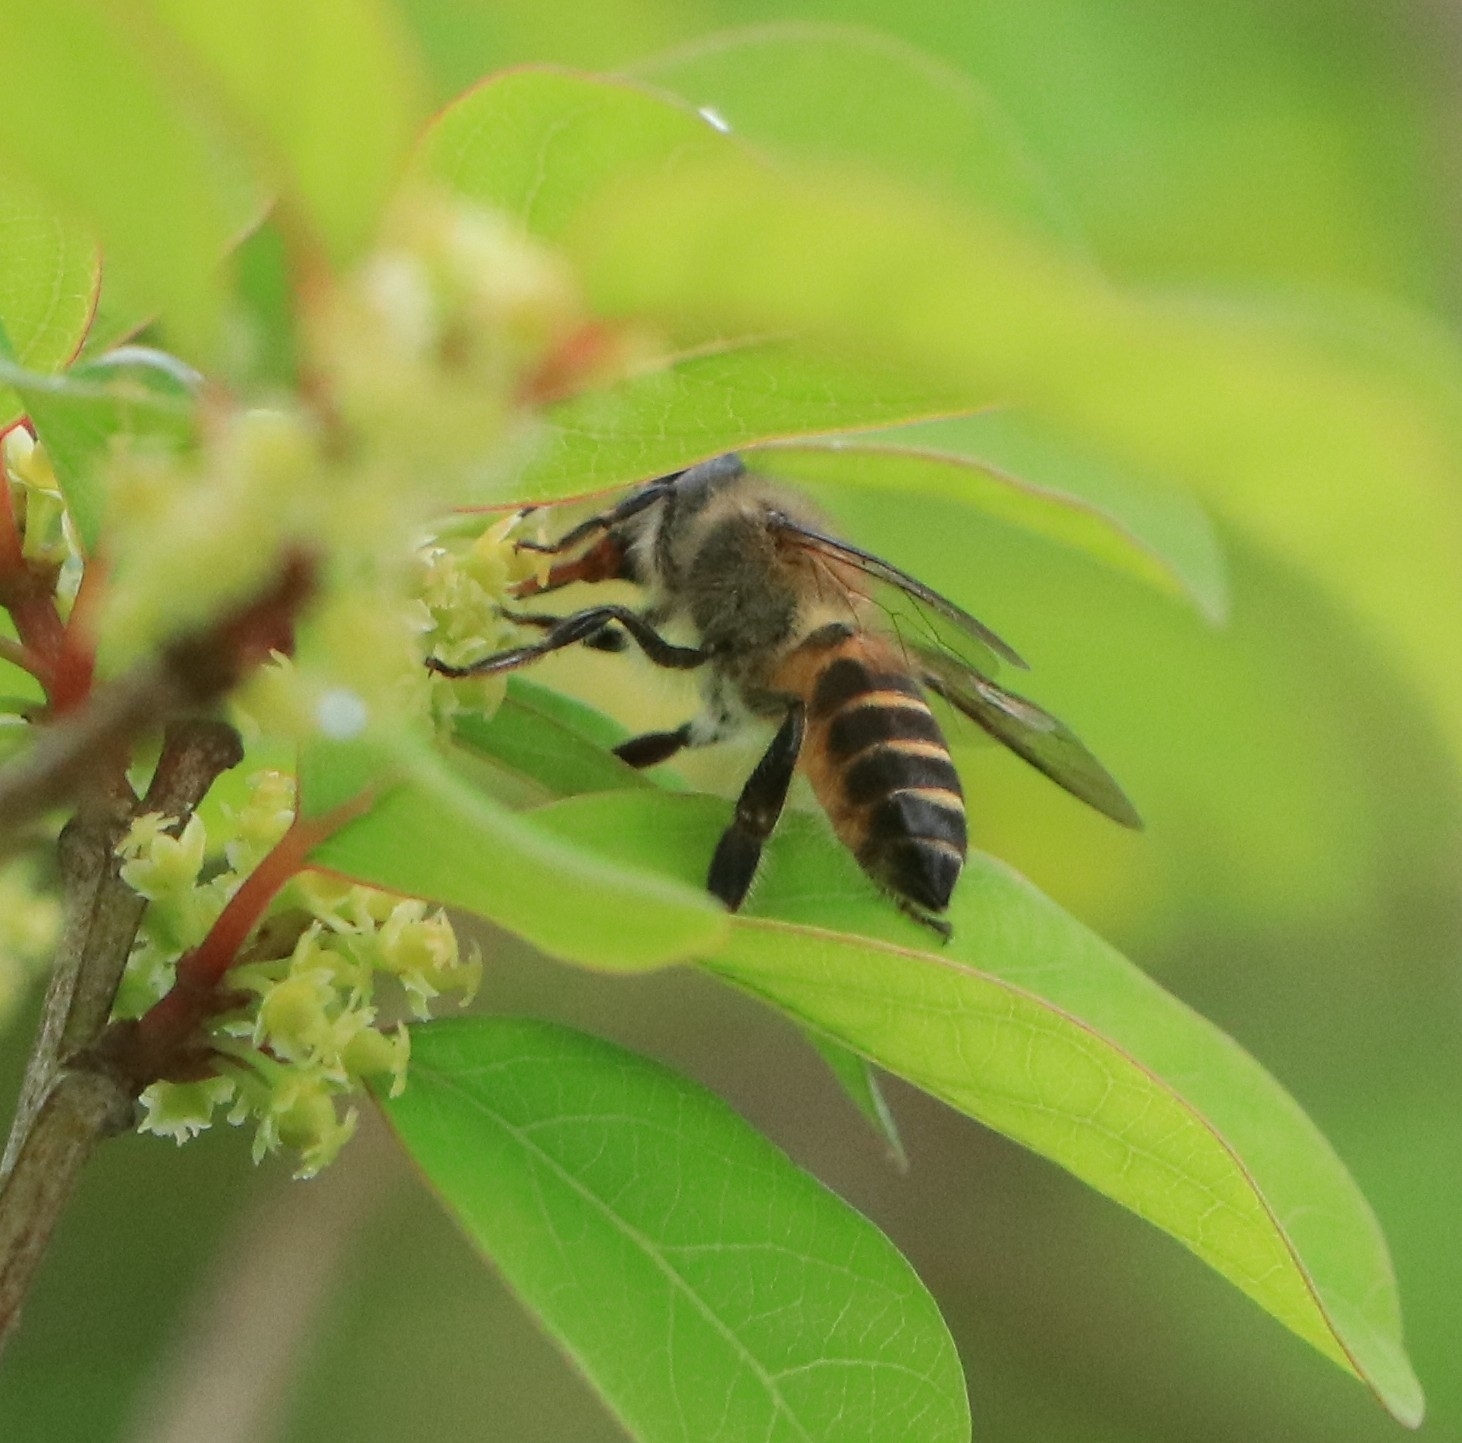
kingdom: Animalia
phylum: Arthropoda
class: Insecta
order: Hymenoptera
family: Apidae
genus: Apis
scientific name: Apis cerana
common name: Honey bee
